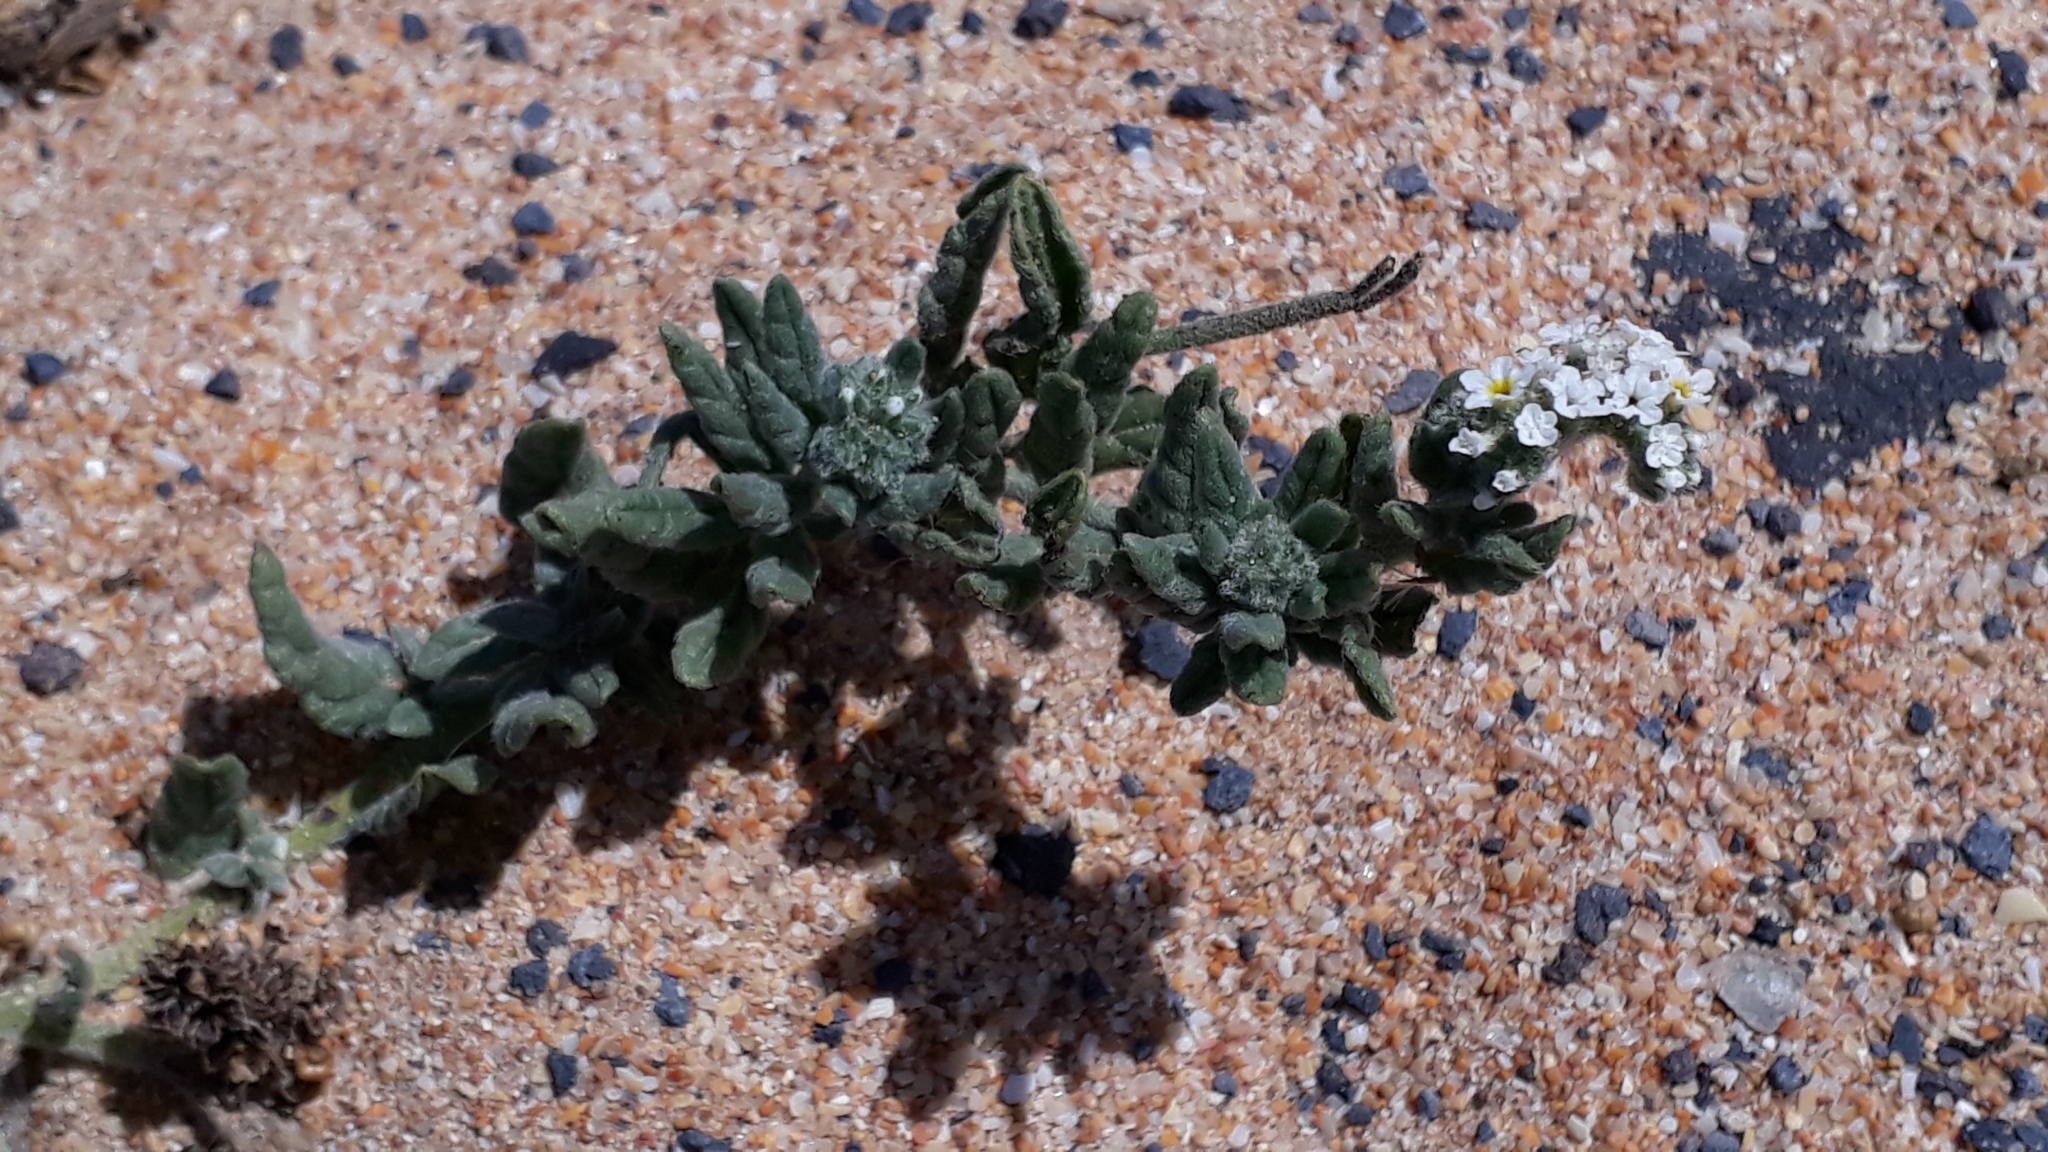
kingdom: Plantae
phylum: Tracheophyta
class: Magnoliopsida
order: Boraginales
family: Heliotropiaceae
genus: Heliotropium
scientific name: Heliotropium ramosissimum
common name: Wavy heliotrope
